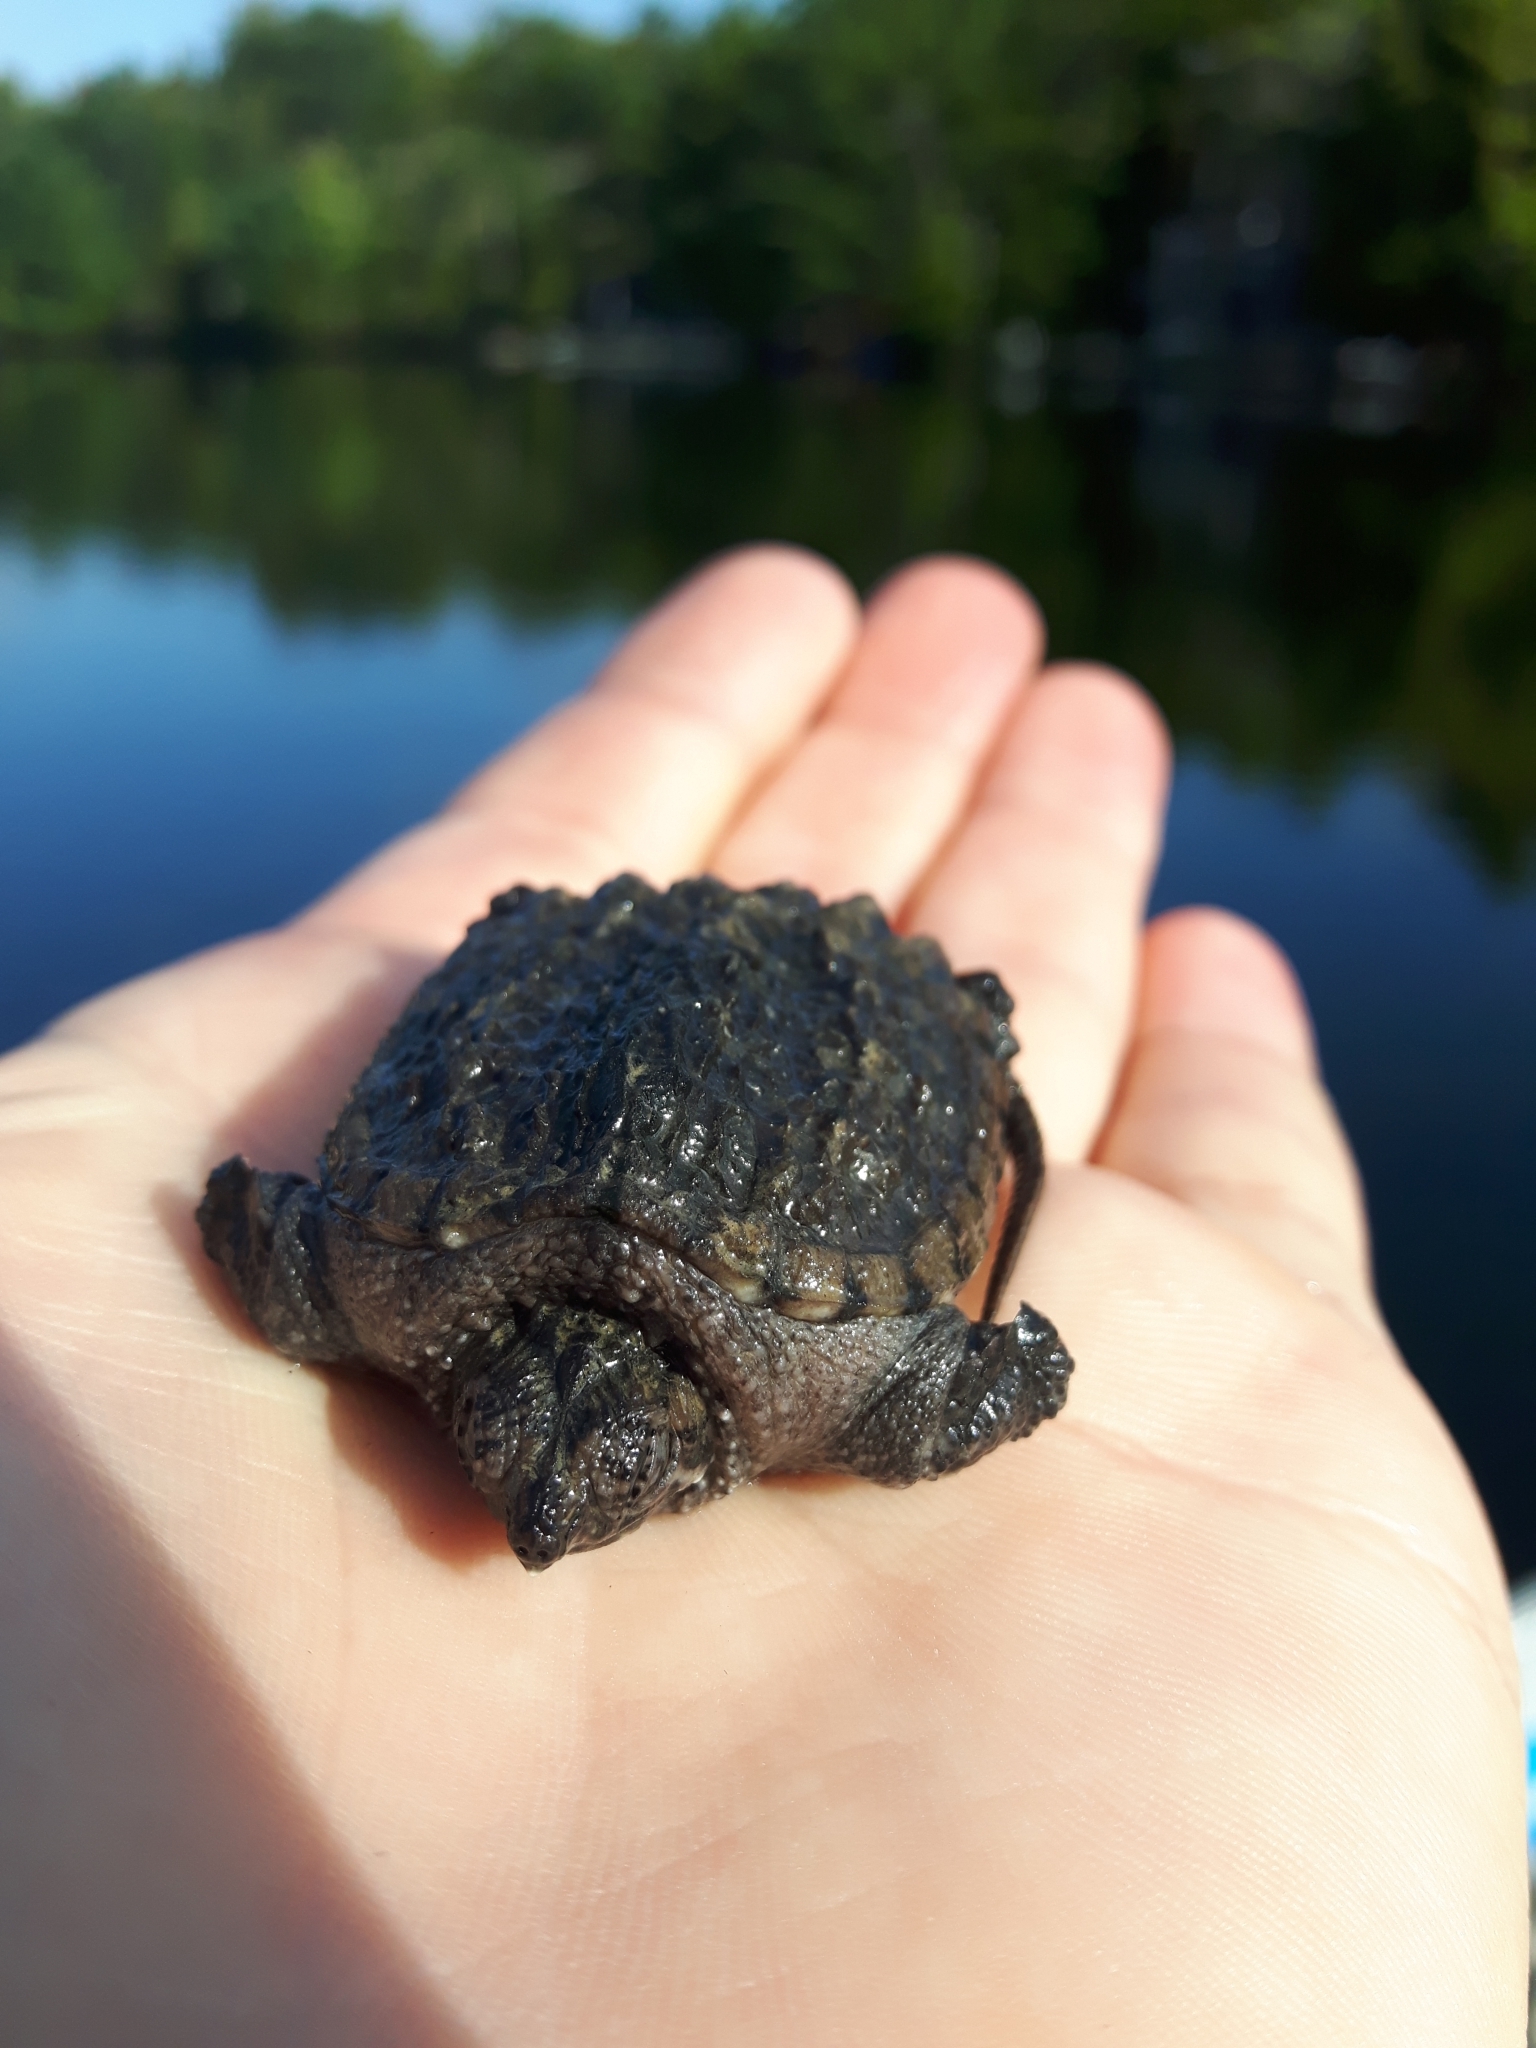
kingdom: Animalia
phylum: Chordata
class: Testudines
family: Chelydridae
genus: Chelydra
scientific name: Chelydra serpentina
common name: Common snapping turtle
